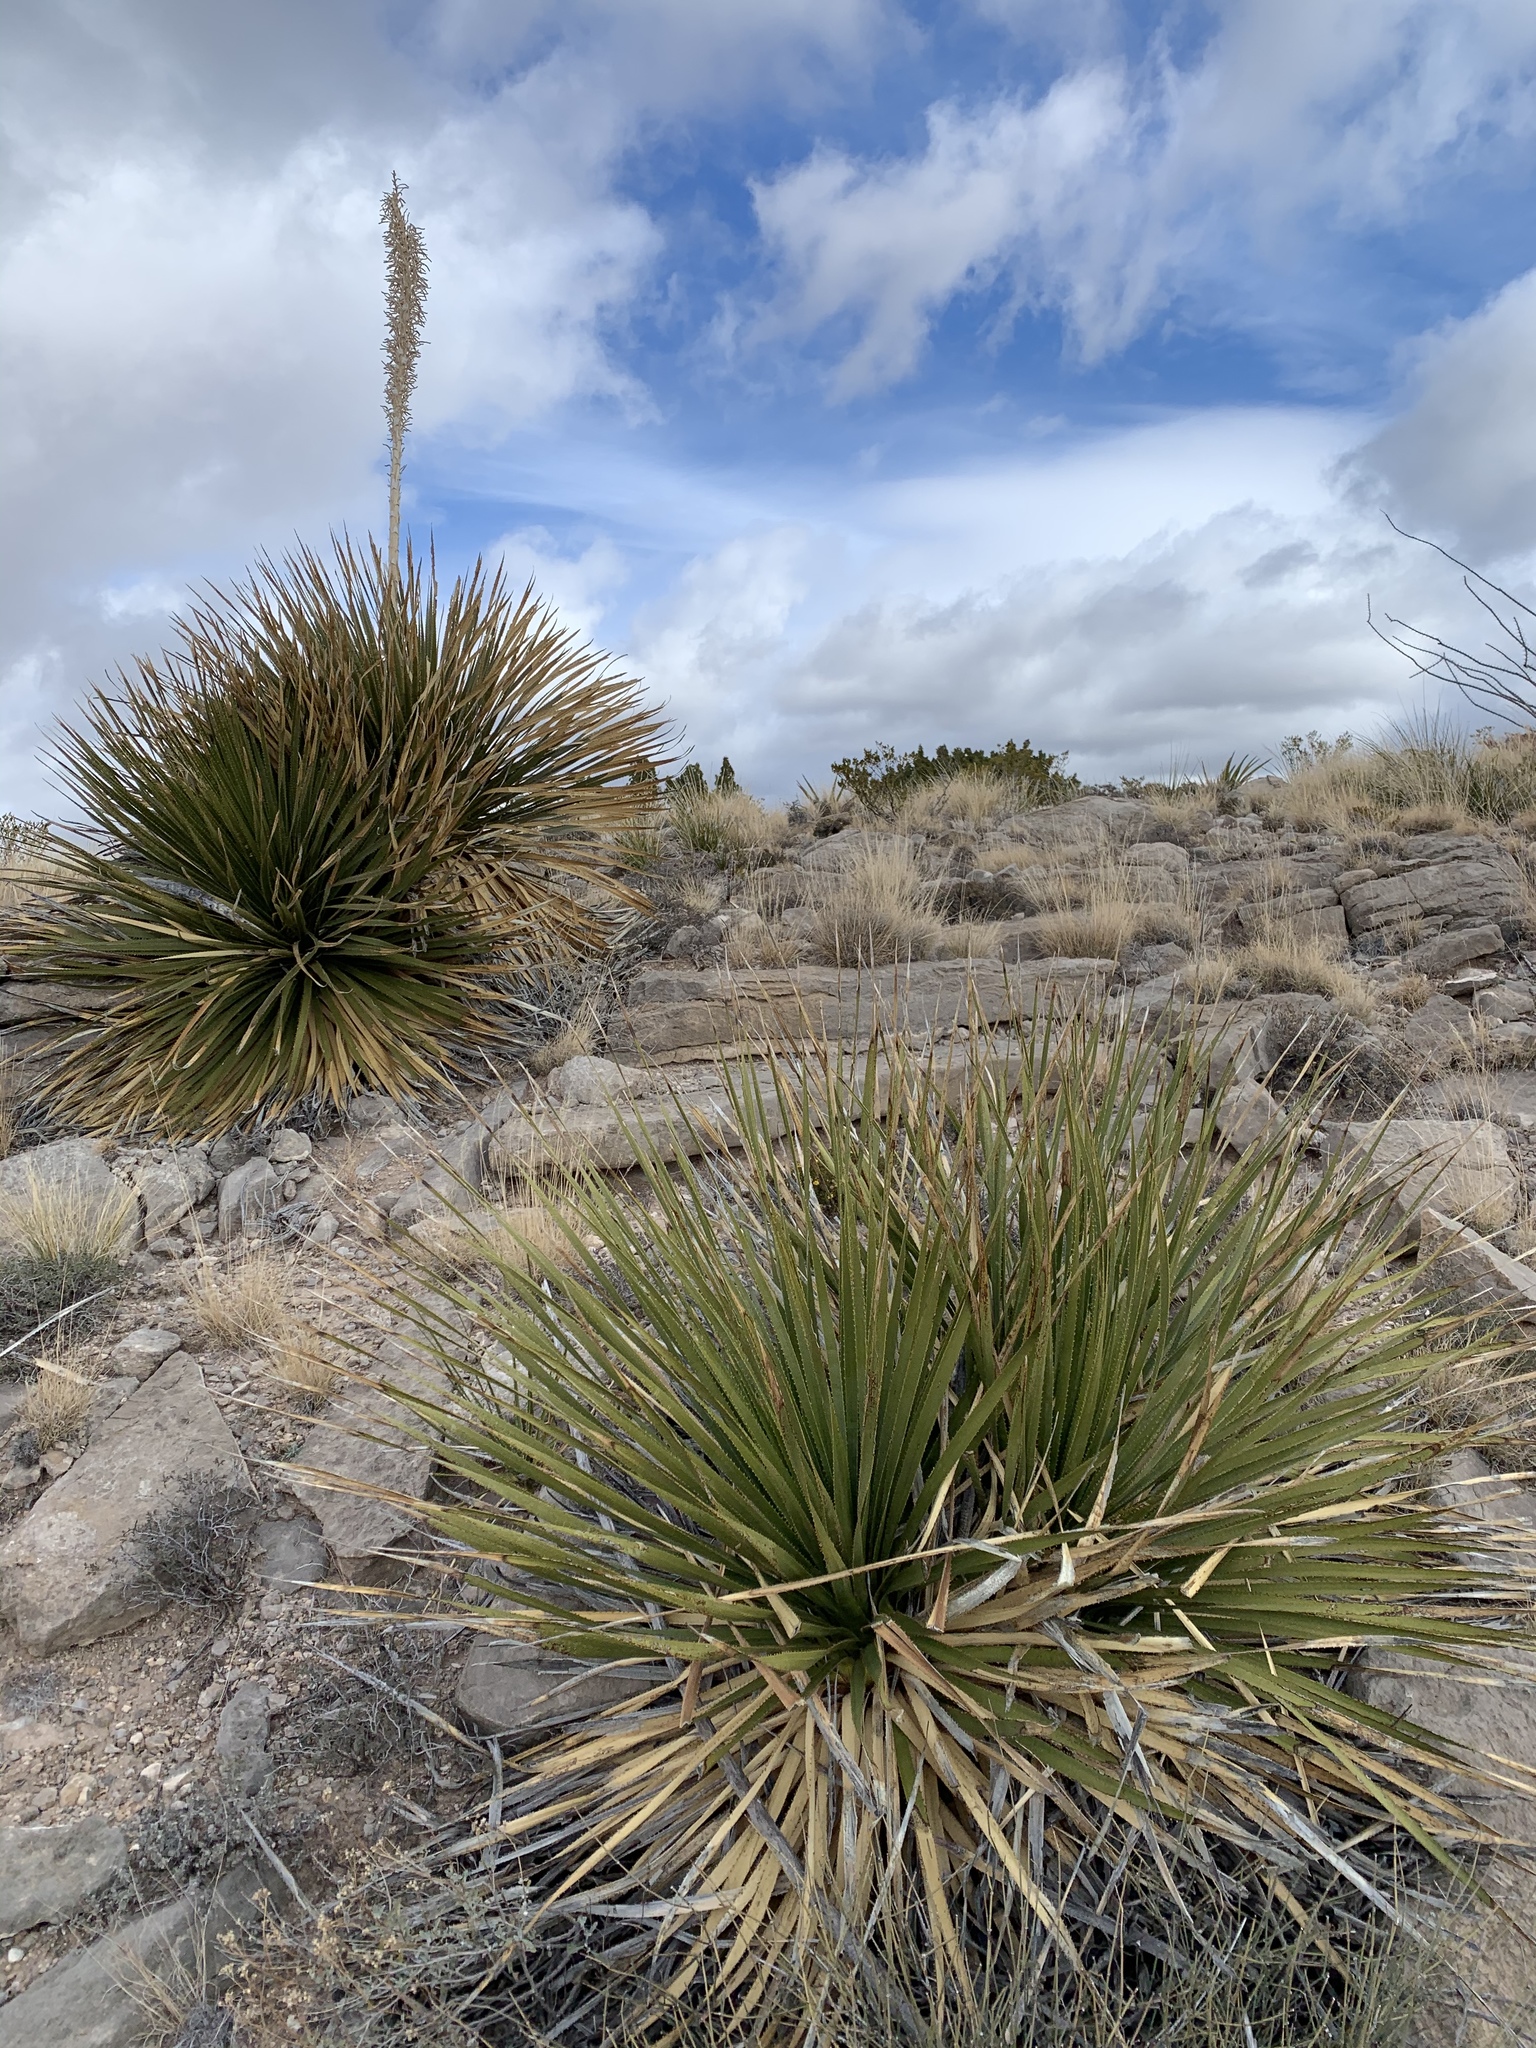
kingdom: Plantae
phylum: Tracheophyta
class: Liliopsida
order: Asparagales
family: Asparagaceae
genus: Dasylirion
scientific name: Dasylirion wheeleri
